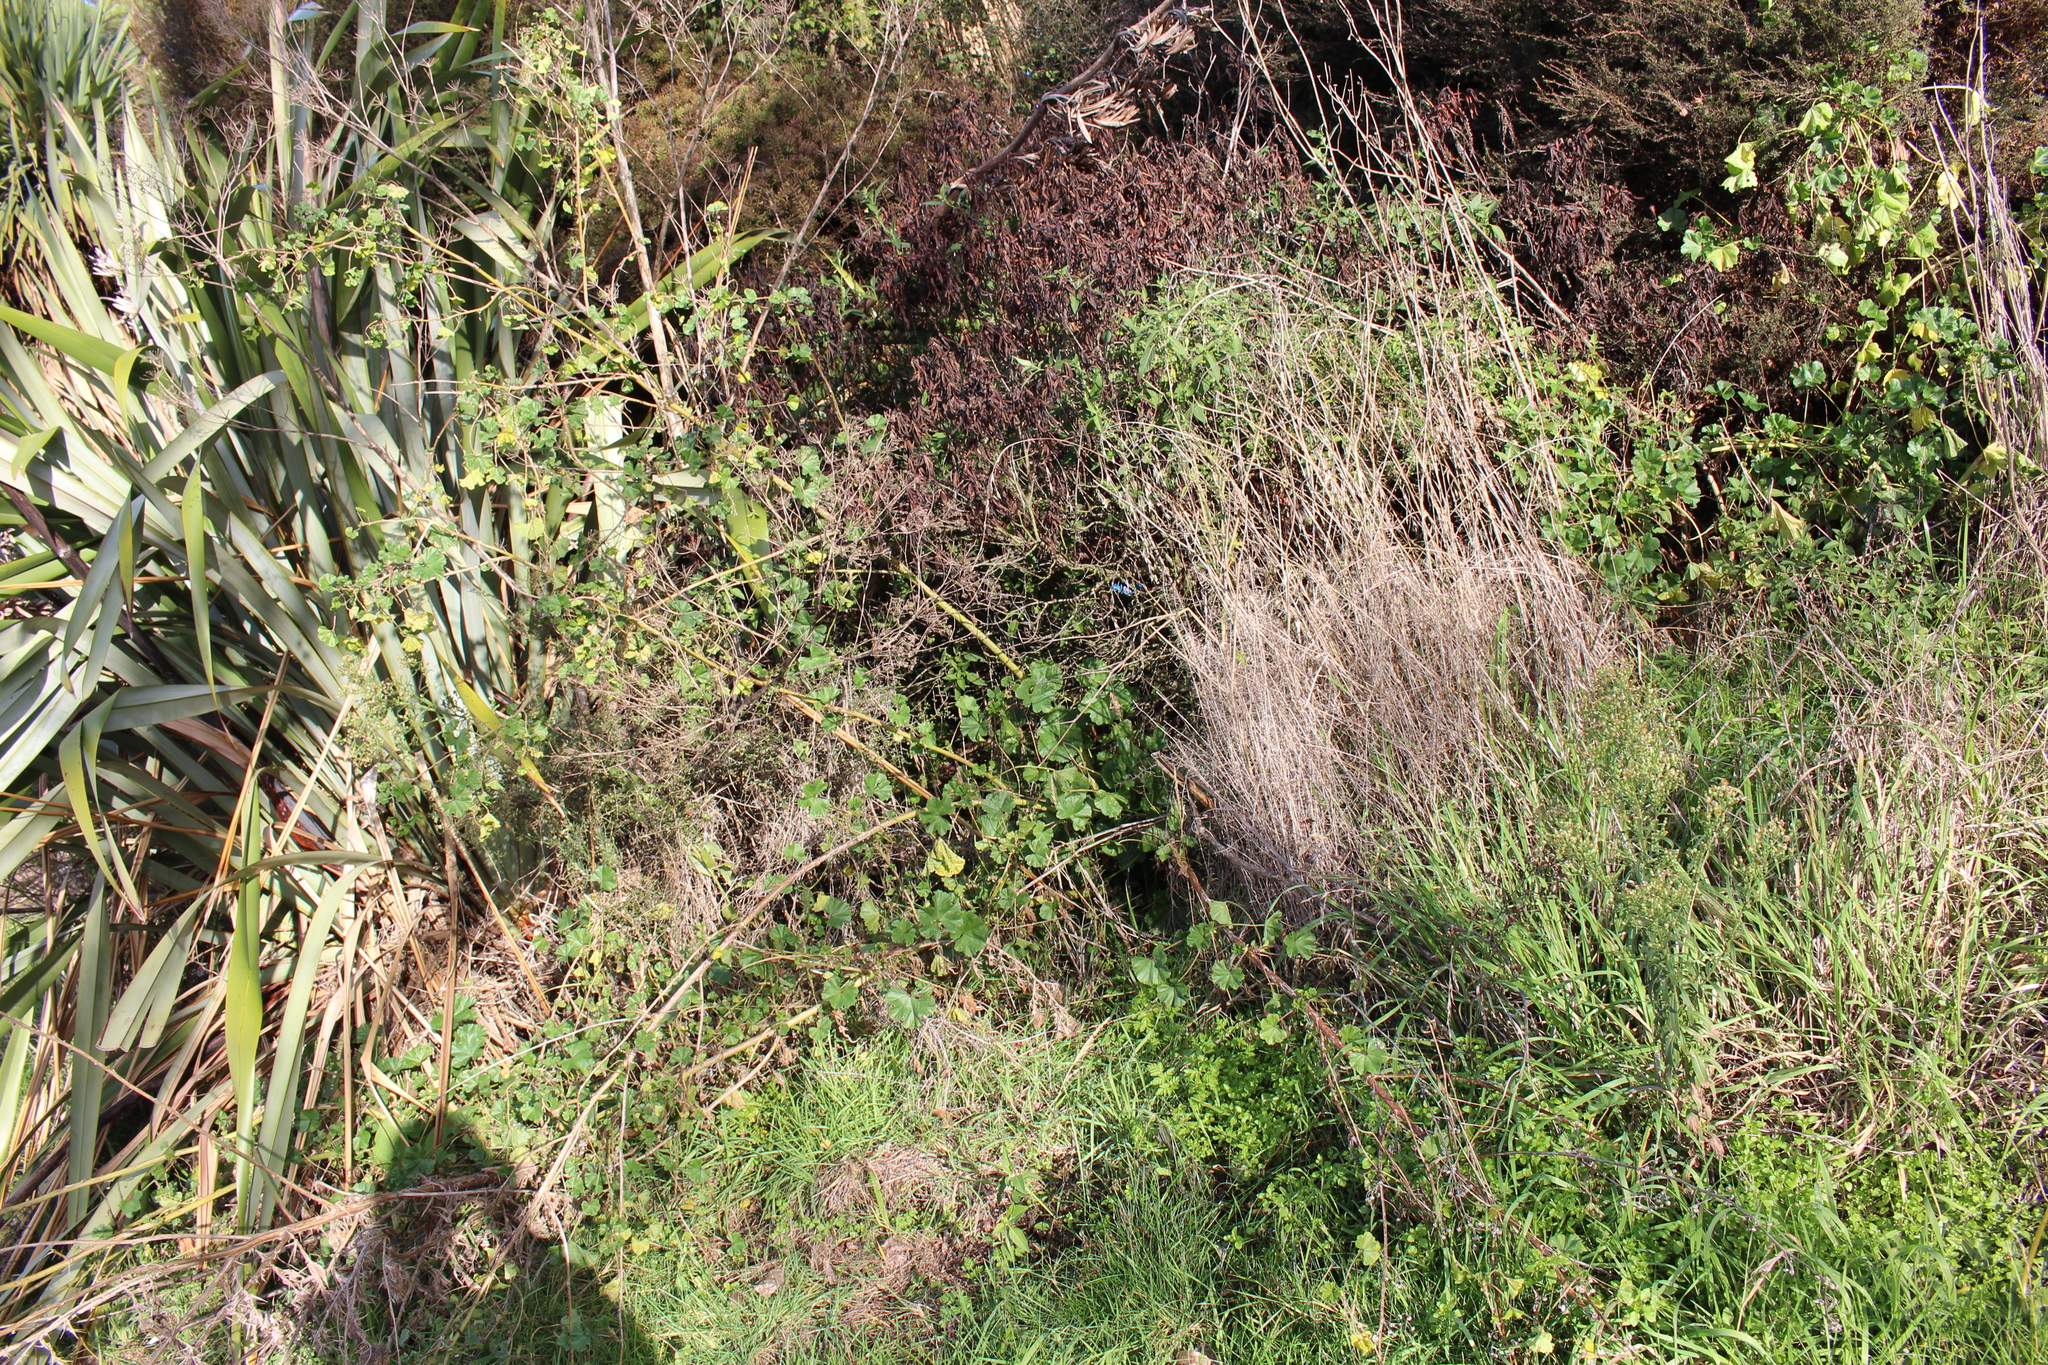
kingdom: Plantae
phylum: Tracheophyta
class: Magnoliopsida
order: Malvales
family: Malvaceae
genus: Malva
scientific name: Malva multiflora
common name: Cheeseweed
